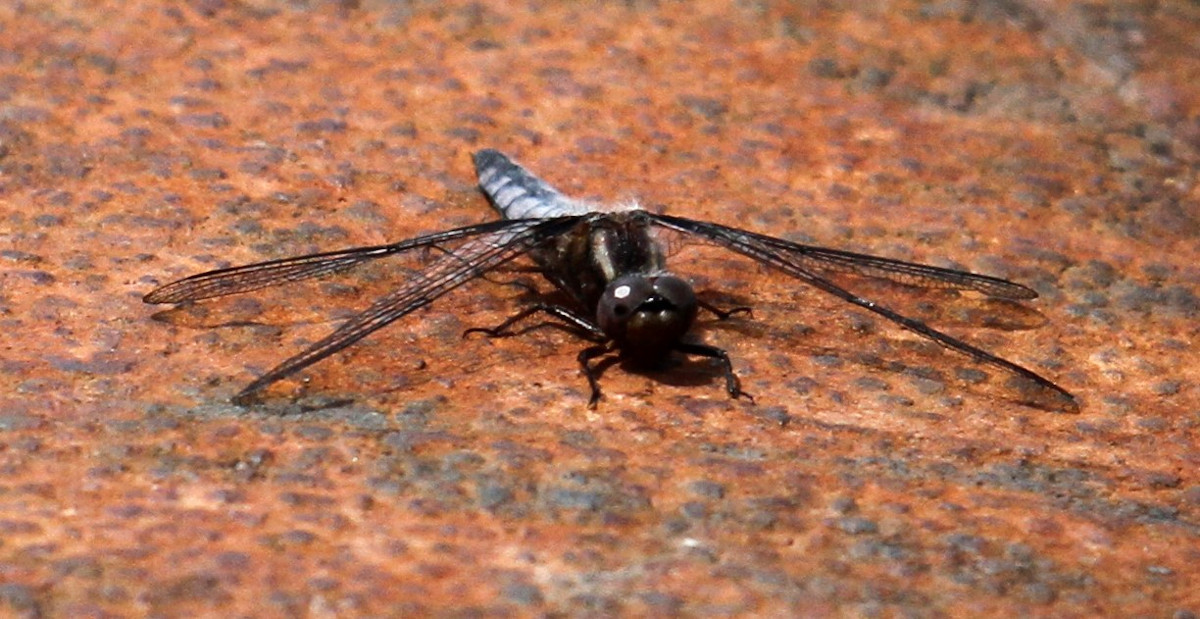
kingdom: Animalia
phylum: Arthropoda
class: Insecta
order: Odonata
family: Libellulidae
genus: Ladona
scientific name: Ladona deplanata
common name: Blue corporal
